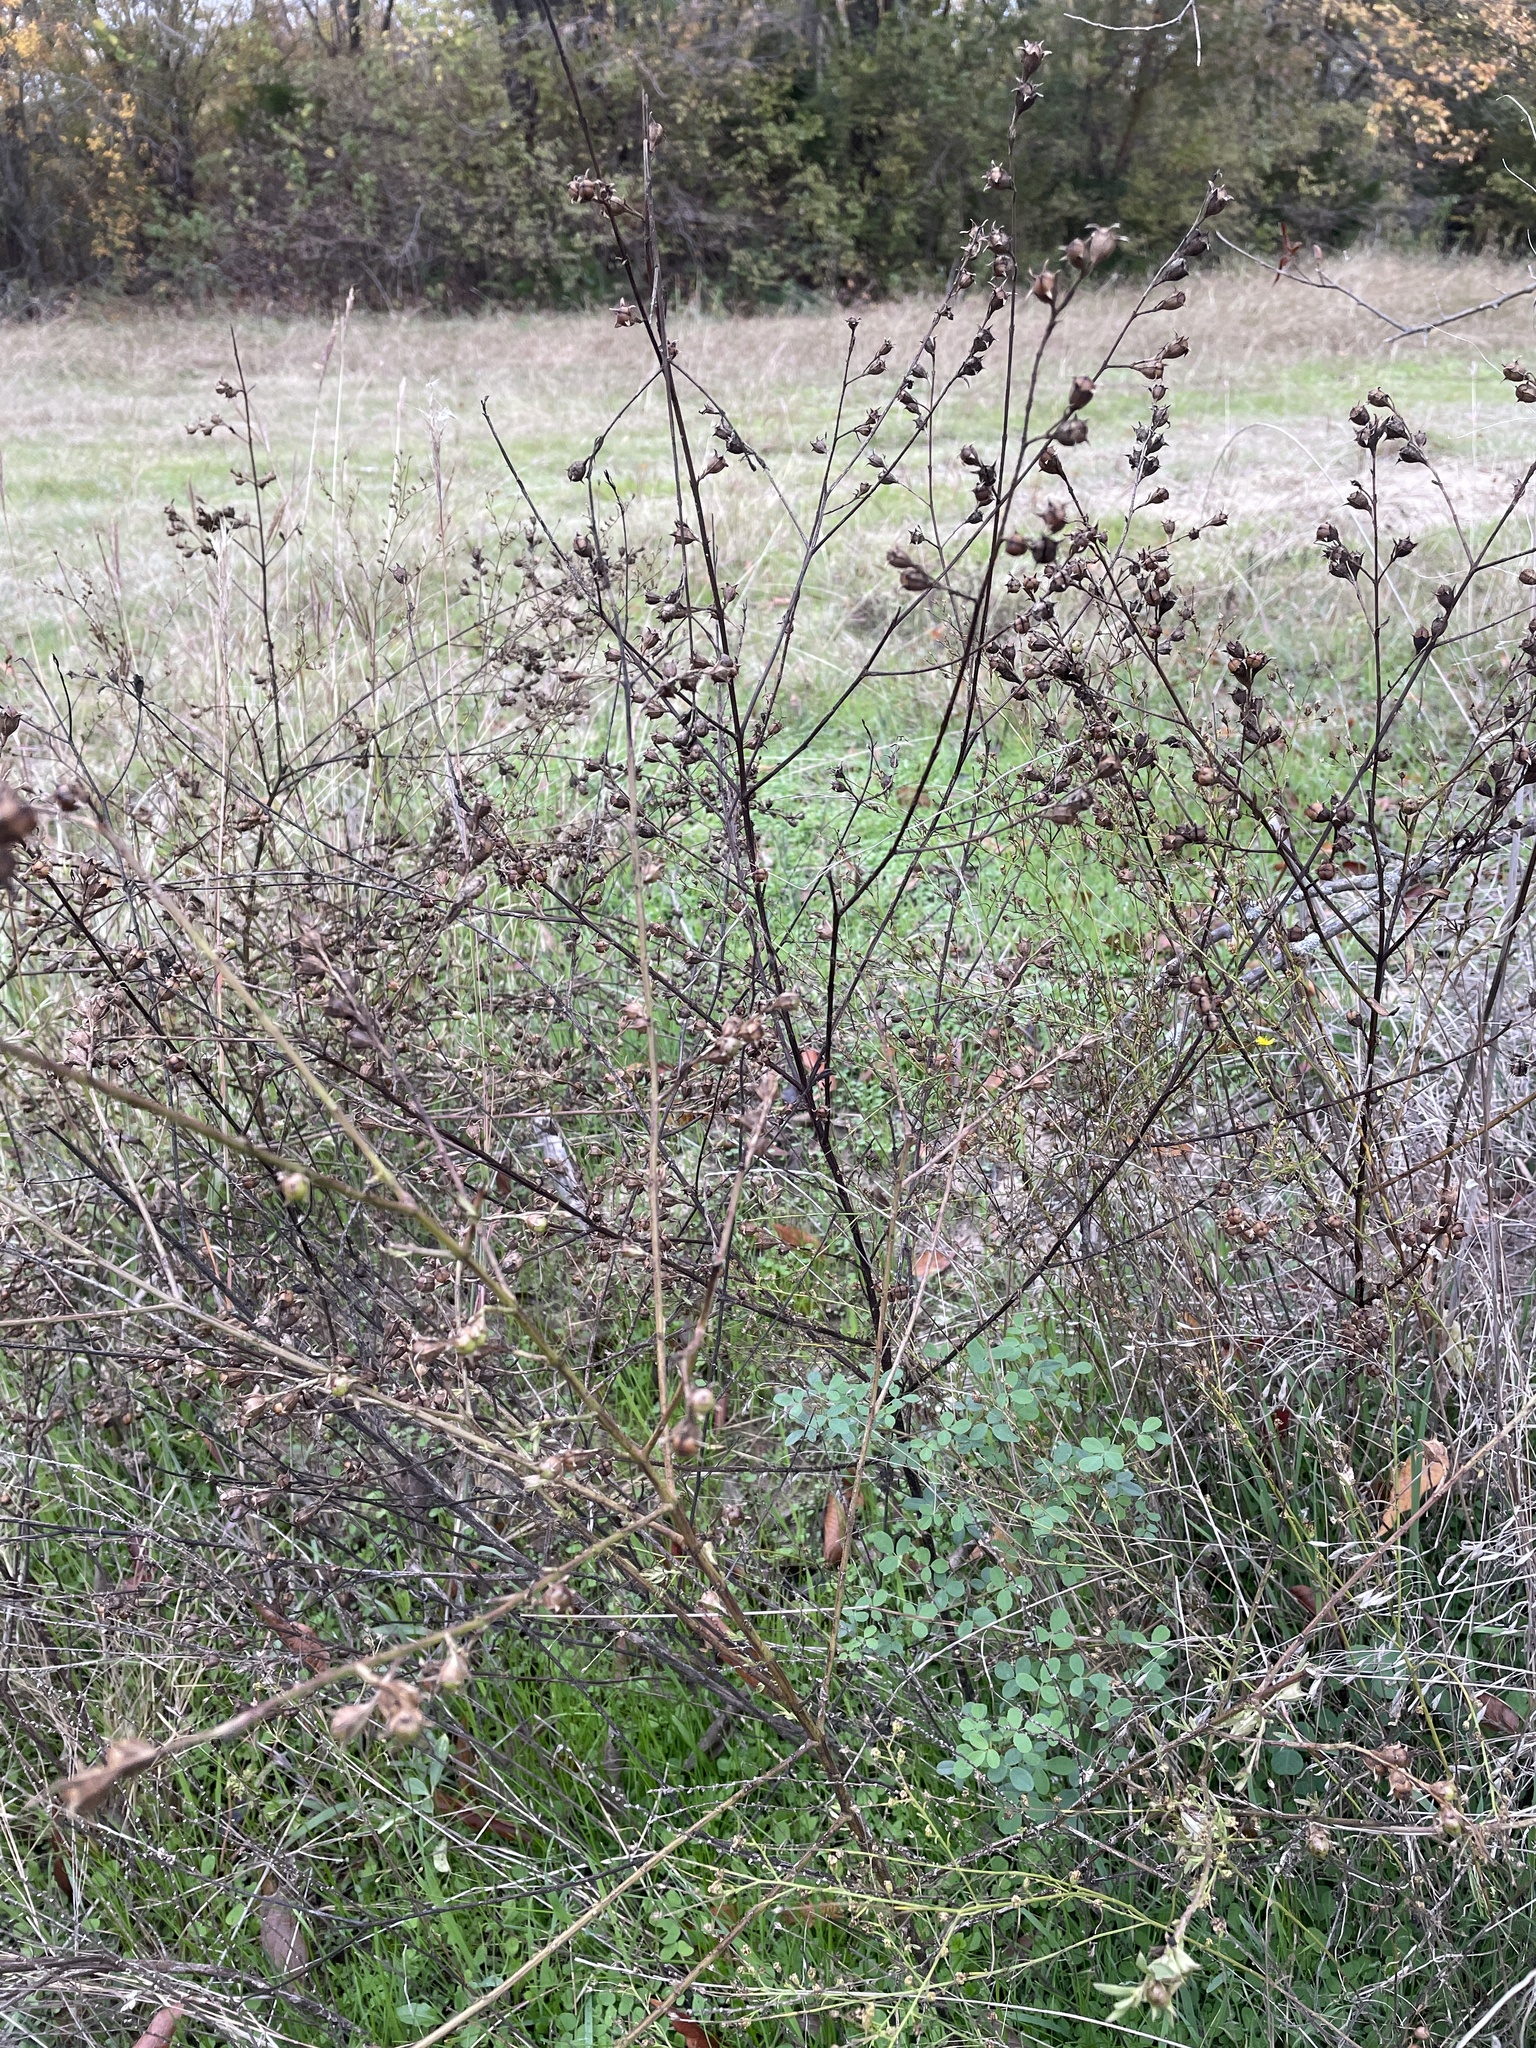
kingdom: Plantae
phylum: Tracheophyta
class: Magnoliopsida
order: Lamiales
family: Orobanchaceae
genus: Agalinis
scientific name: Agalinis heterophylla
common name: Prairie agalinis
